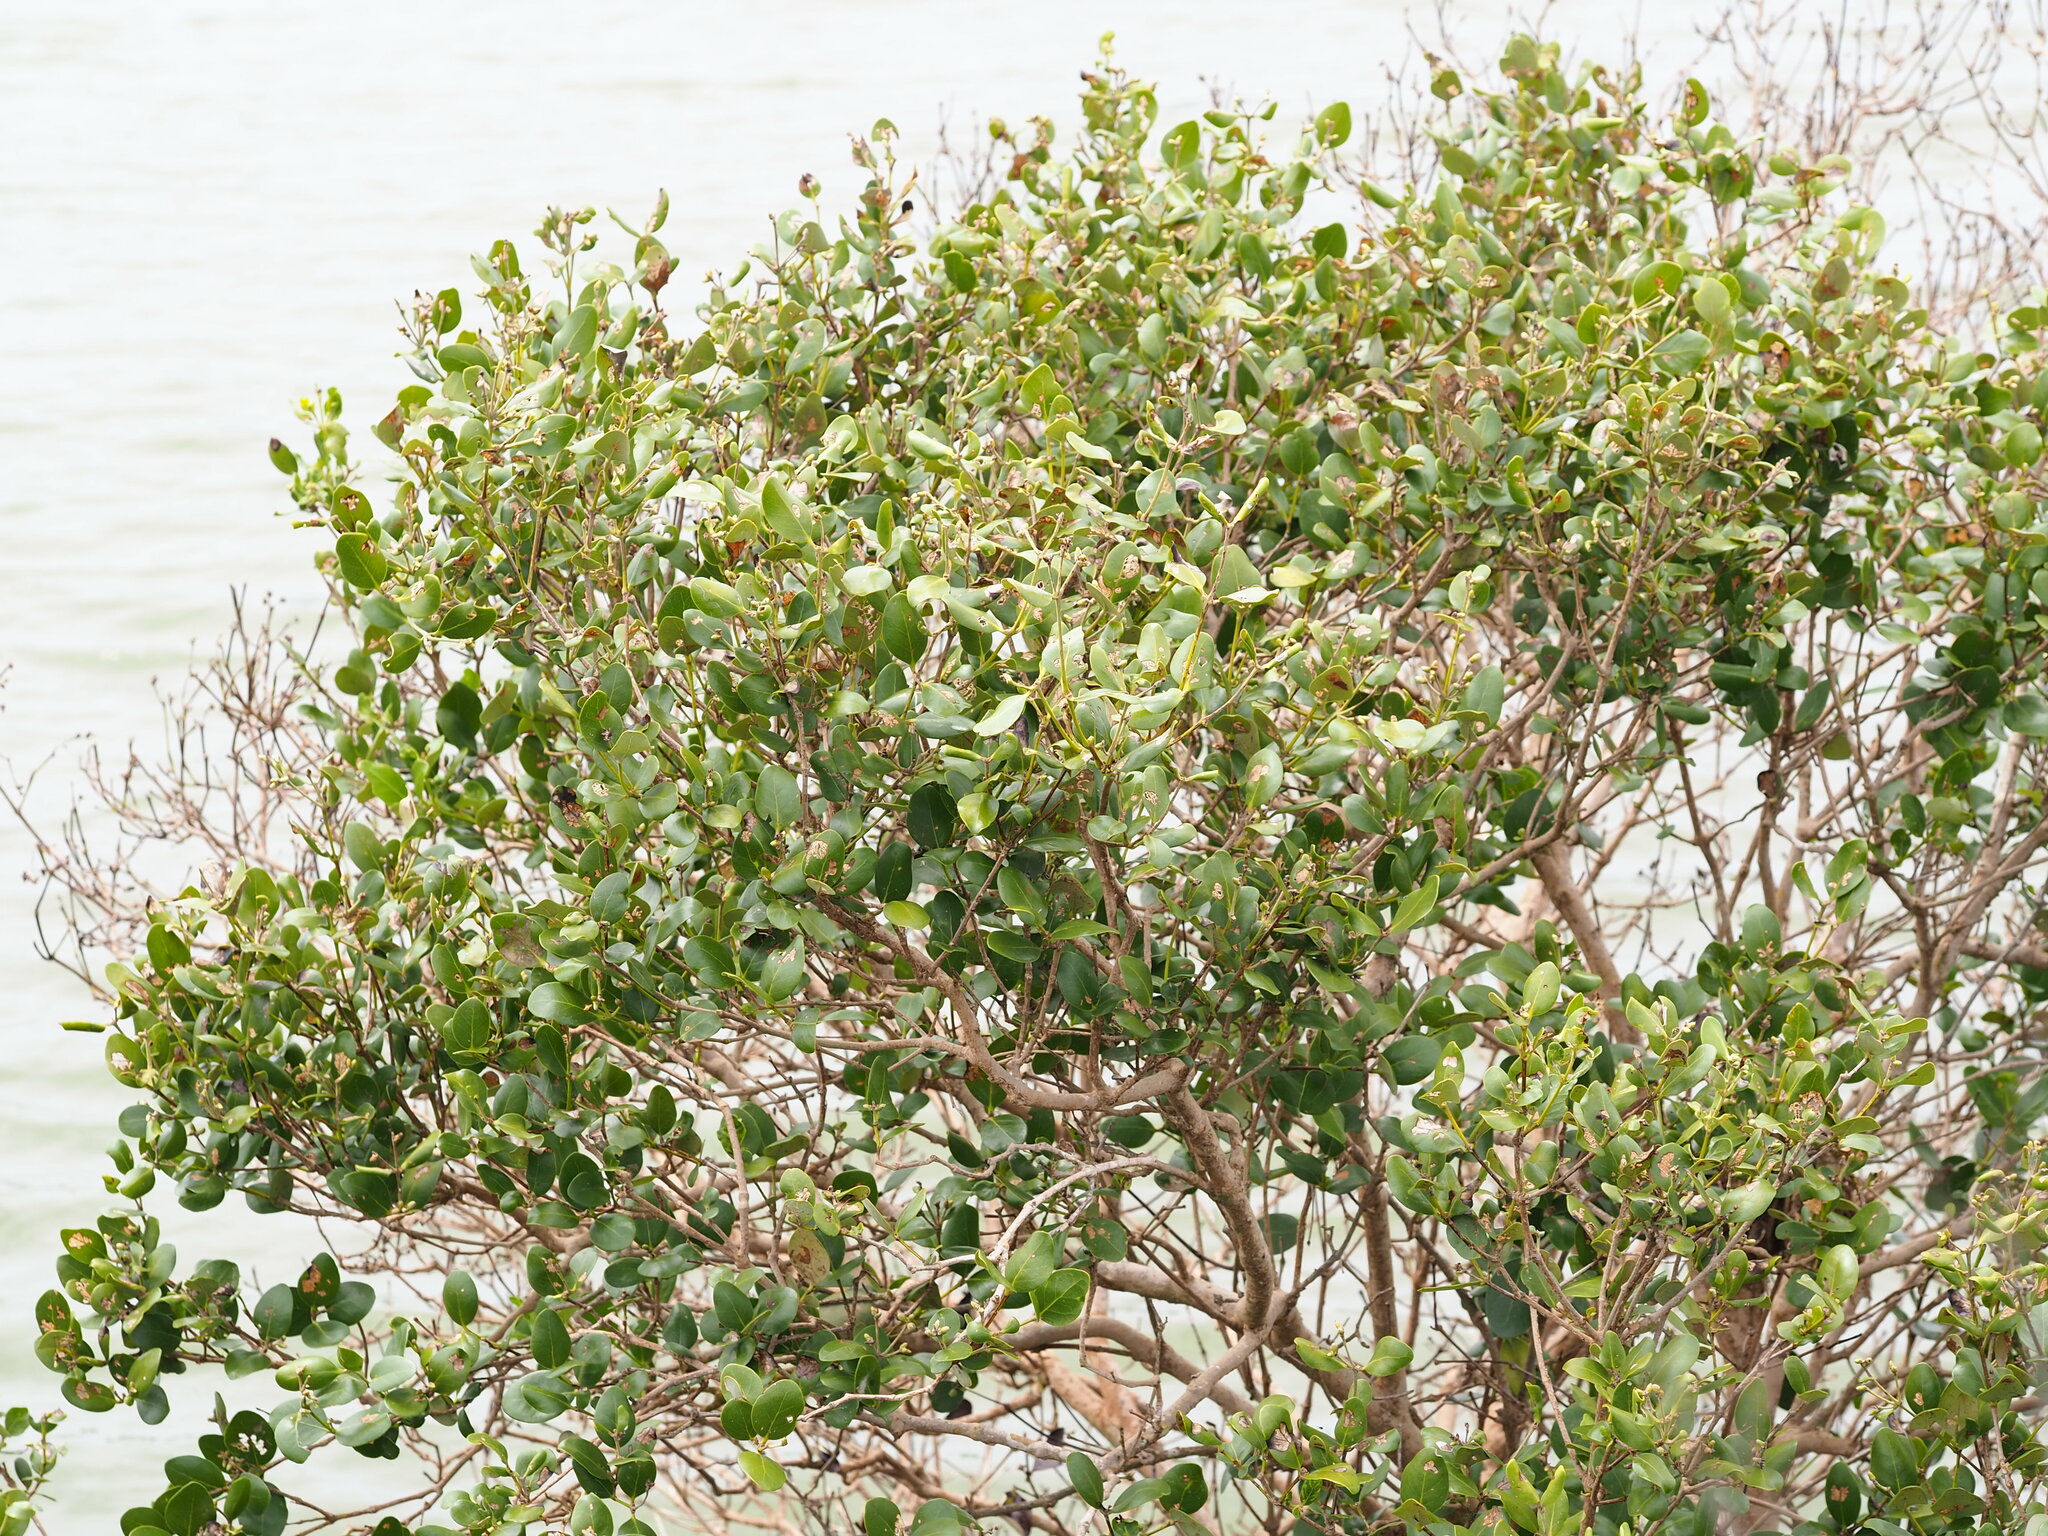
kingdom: Plantae
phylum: Tracheophyta
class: Magnoliopsida
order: Lamiales
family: Acanthaceae
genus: Avicennia
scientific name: Avicennia marina
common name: Gray mangrove
